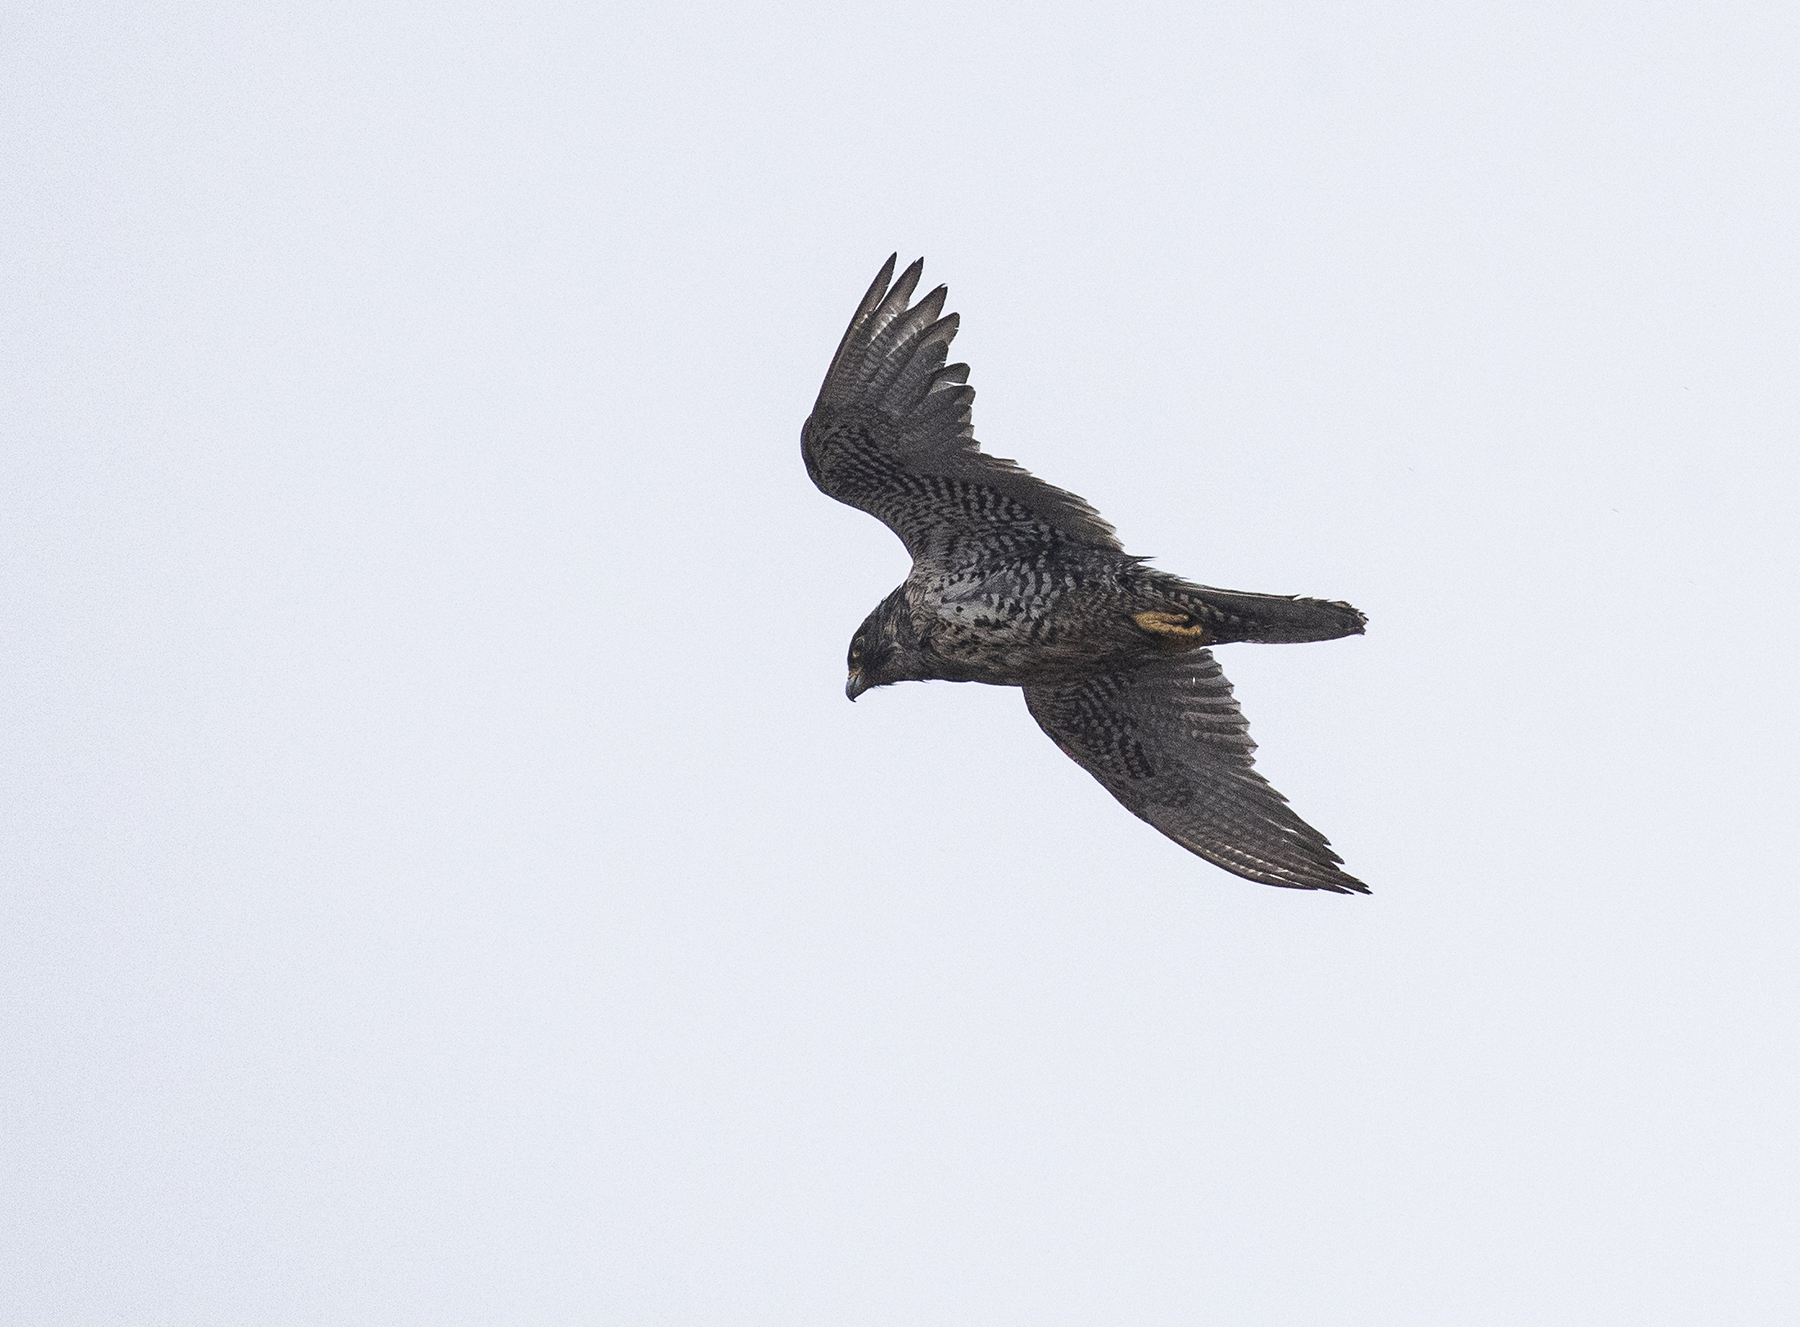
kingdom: Animalia
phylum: Chordata
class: Aves
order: Falconiformes
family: Falconidae
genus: Falco
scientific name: Falco rusticolus
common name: Gyrfalcon
